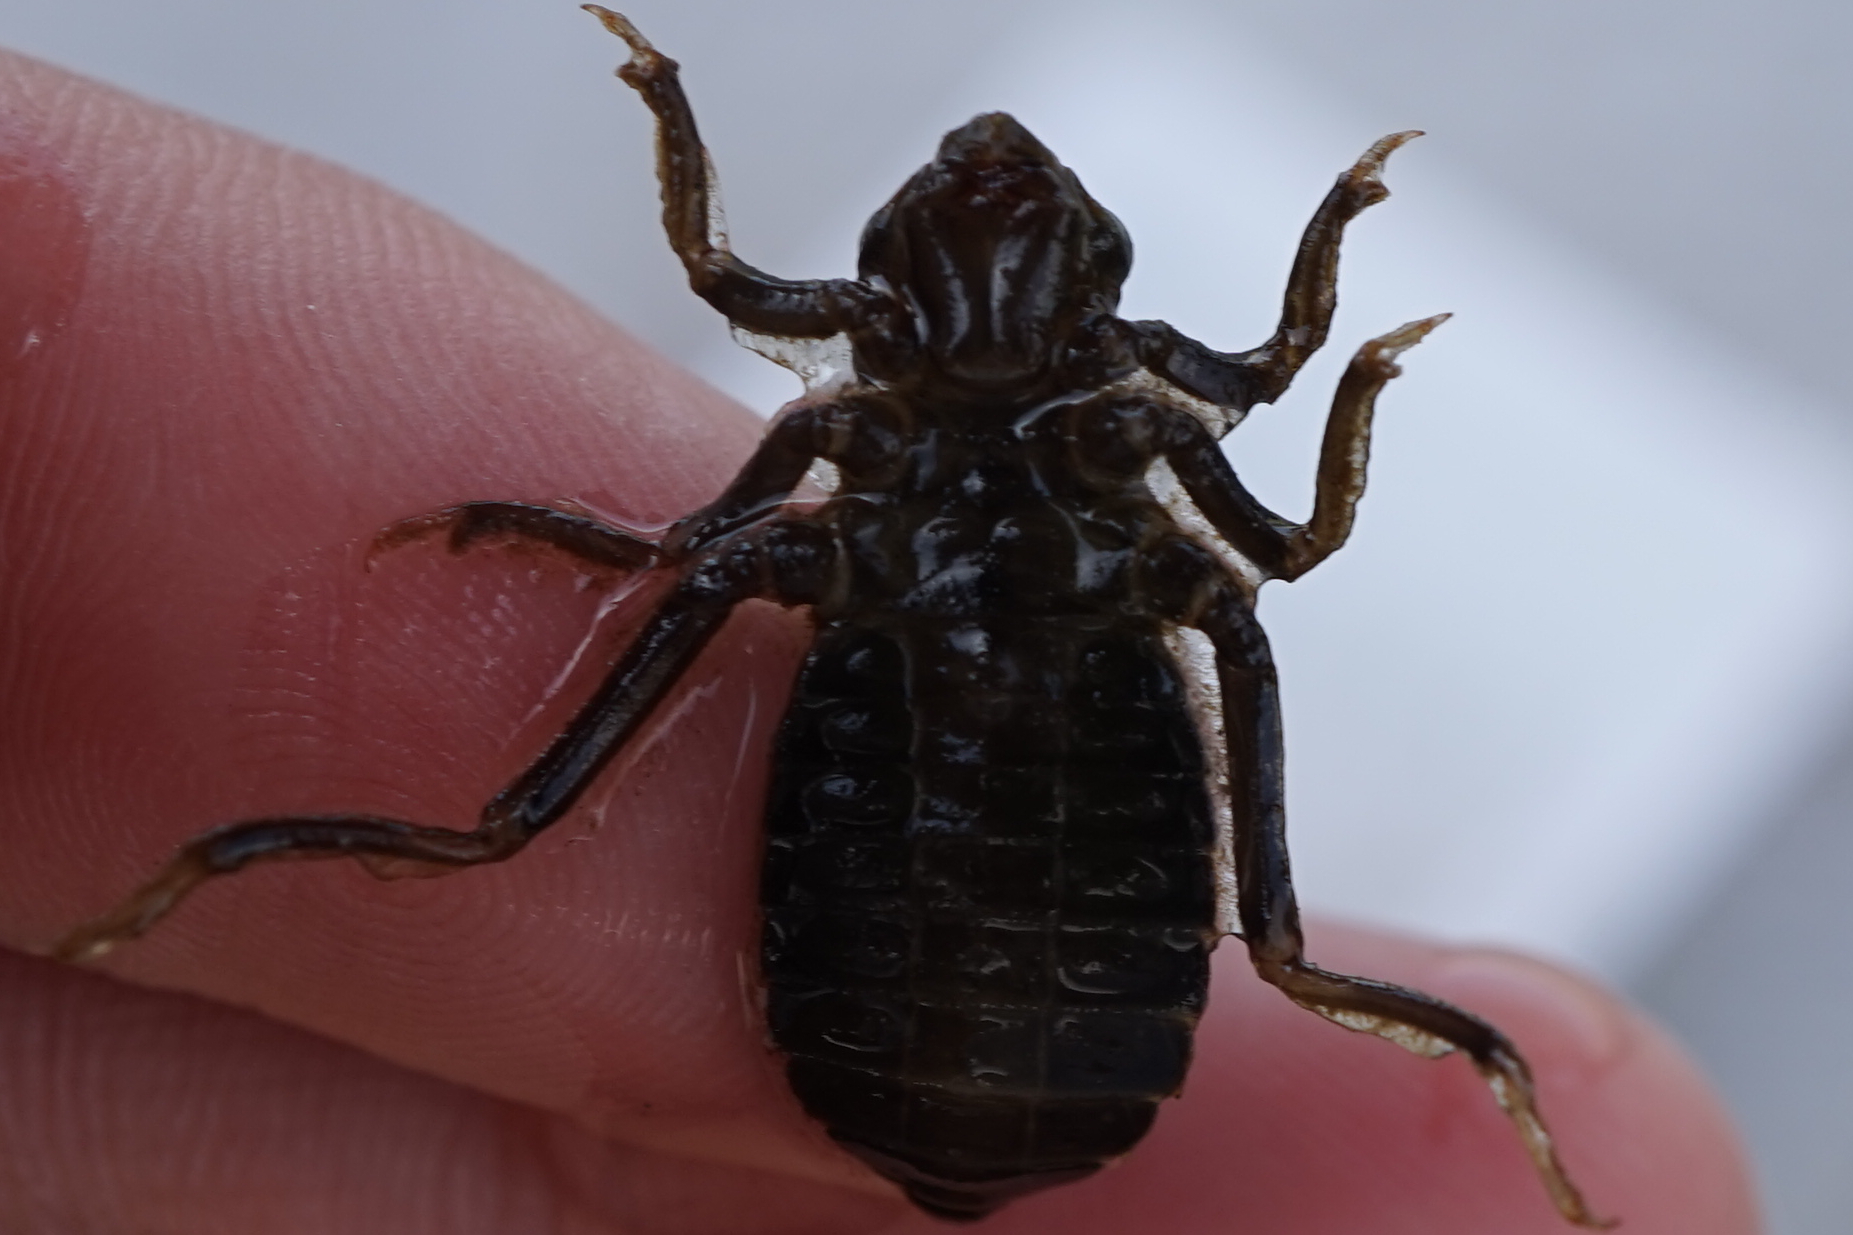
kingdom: Animalia
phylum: Arthropoda
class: Insecta
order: Odonata
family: Gomphidae
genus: Anisogomphus
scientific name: Anisogomphus maacki
